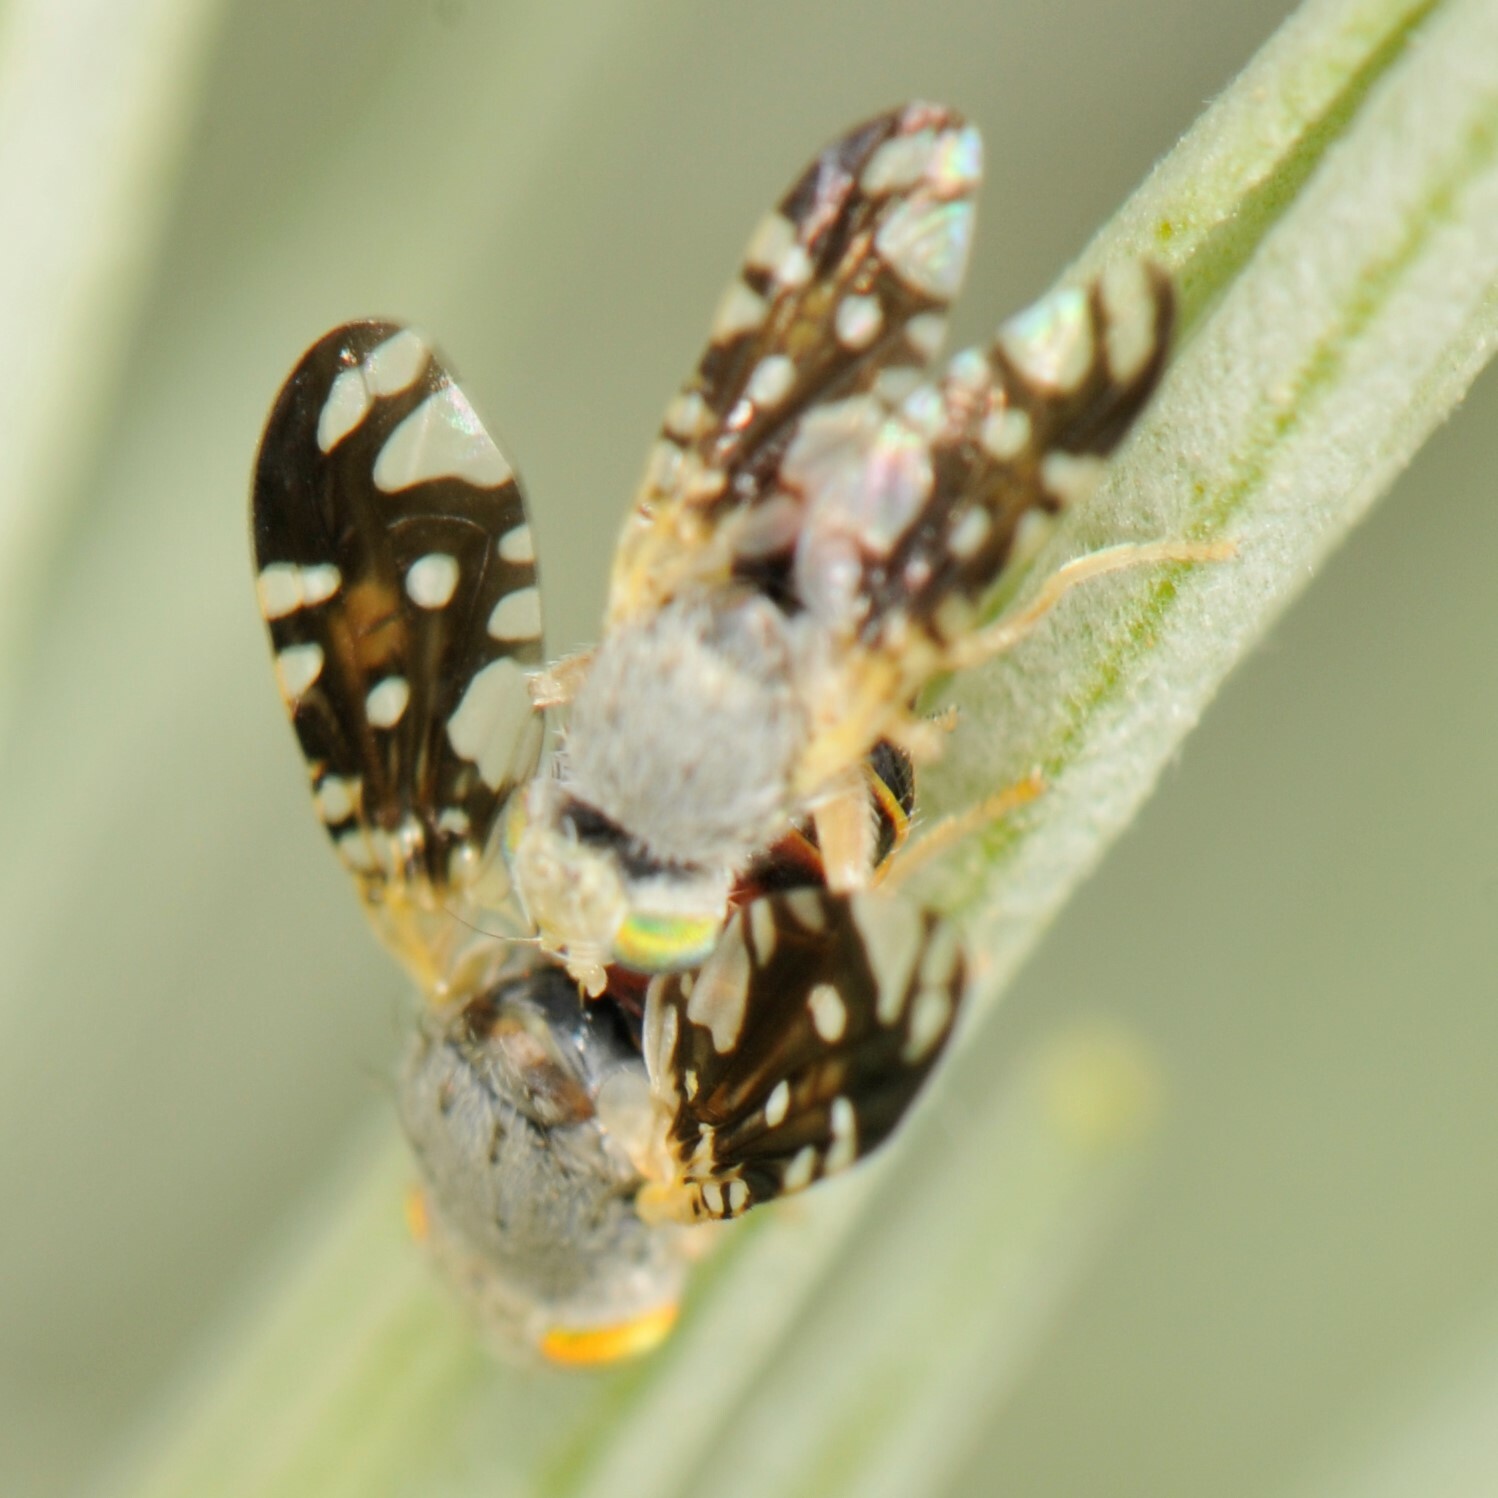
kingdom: Animalia
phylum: Arthropoda
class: Insecta
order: Diptera
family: Tephritidae
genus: Aciurina
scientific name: Aciurina trixa
